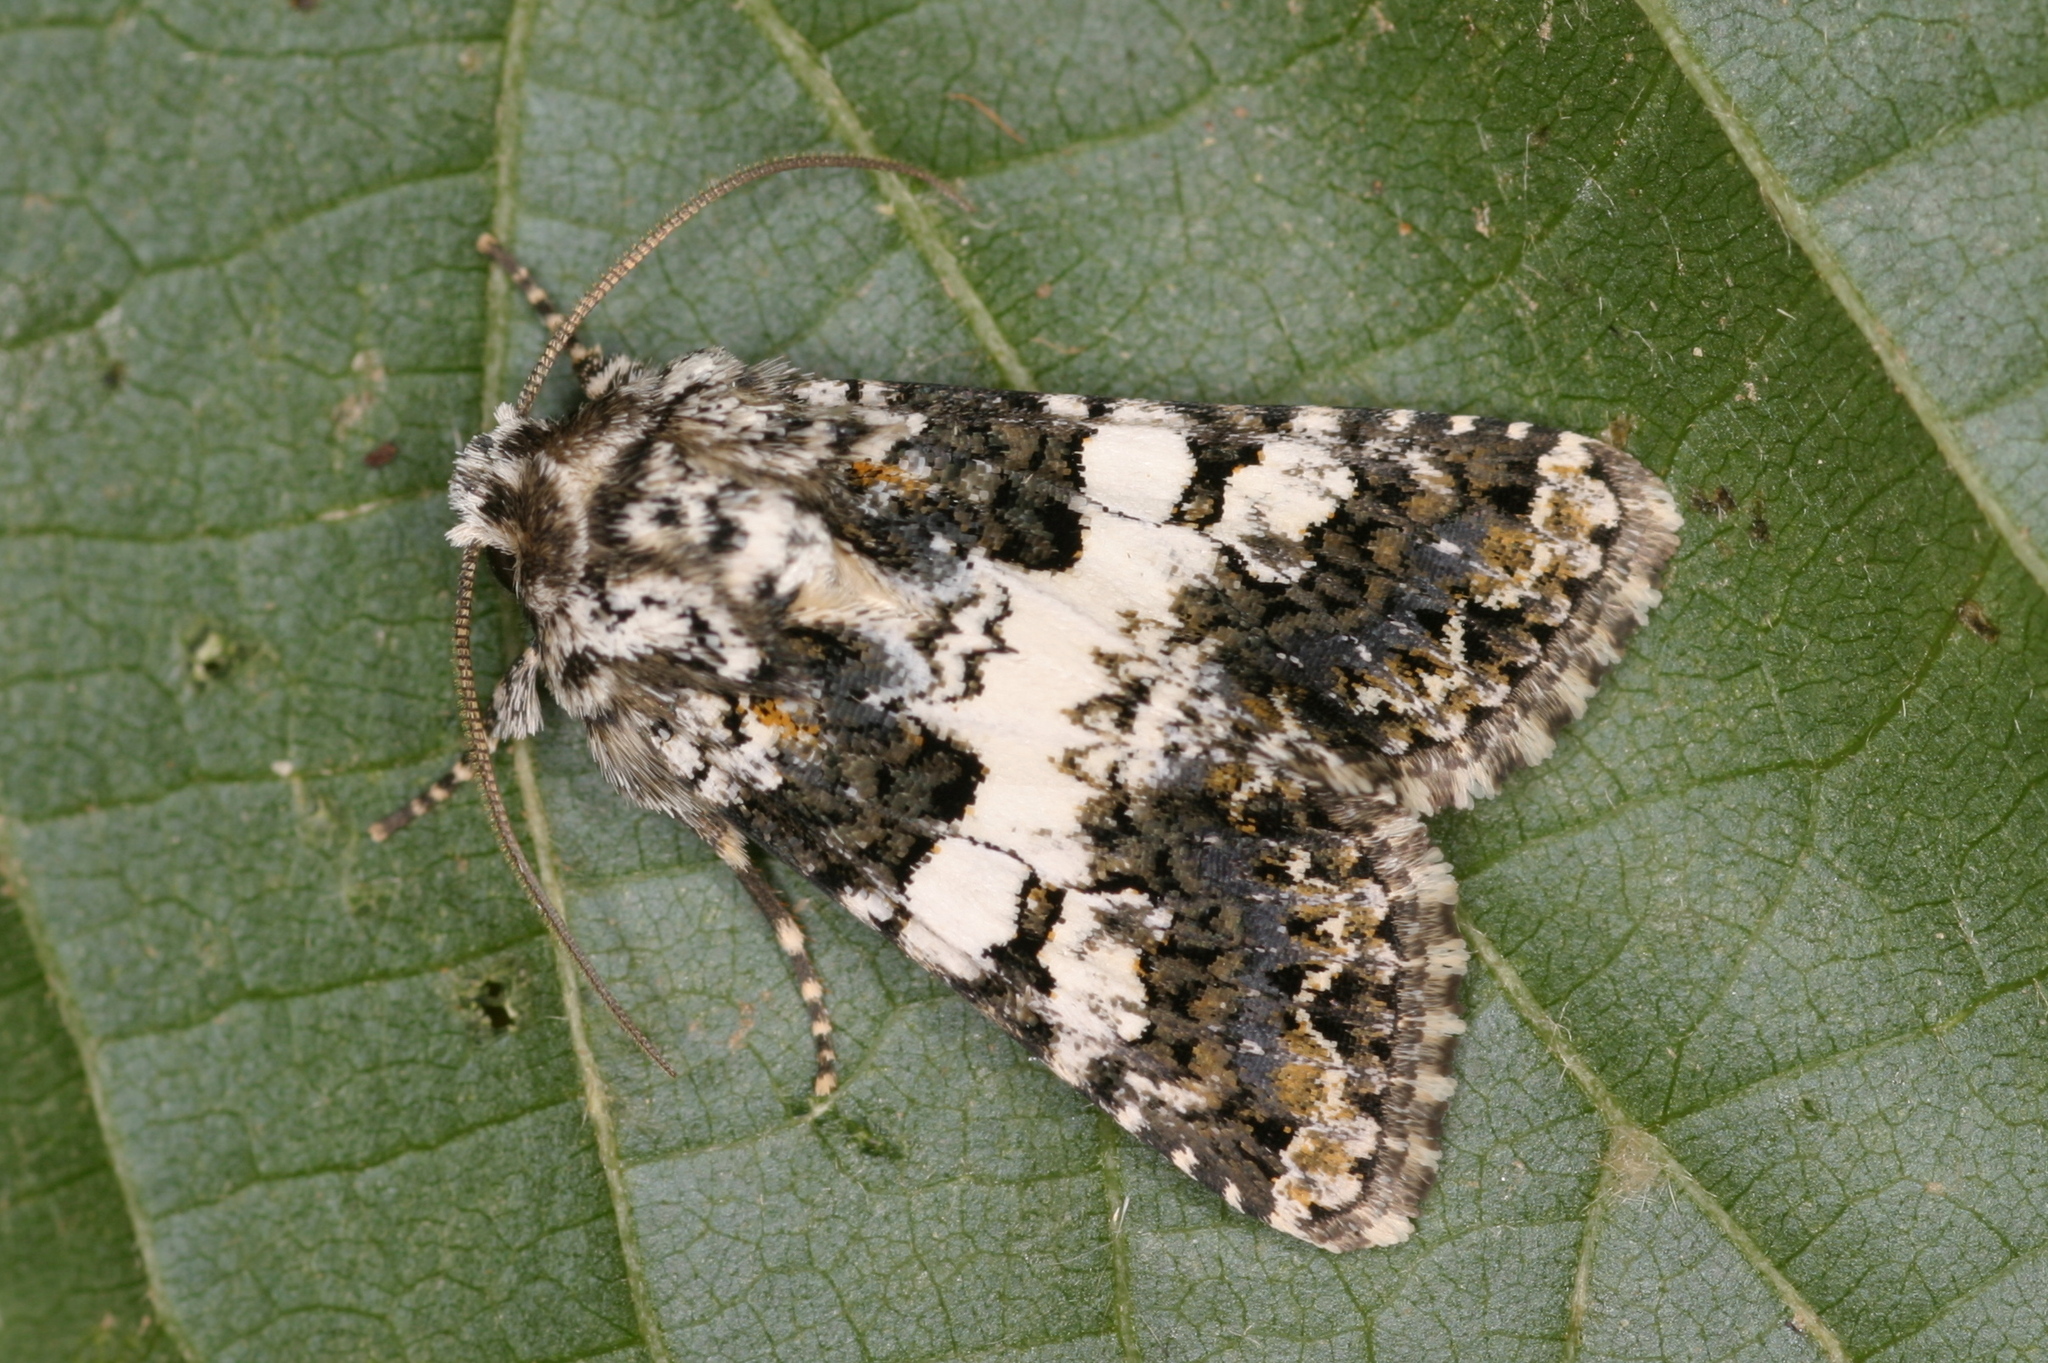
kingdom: Animalia
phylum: Arthropoda
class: Insecta
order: Lepidoptera
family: Noctuidae
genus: Hadena
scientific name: Hadena compta
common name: Varied coronet
